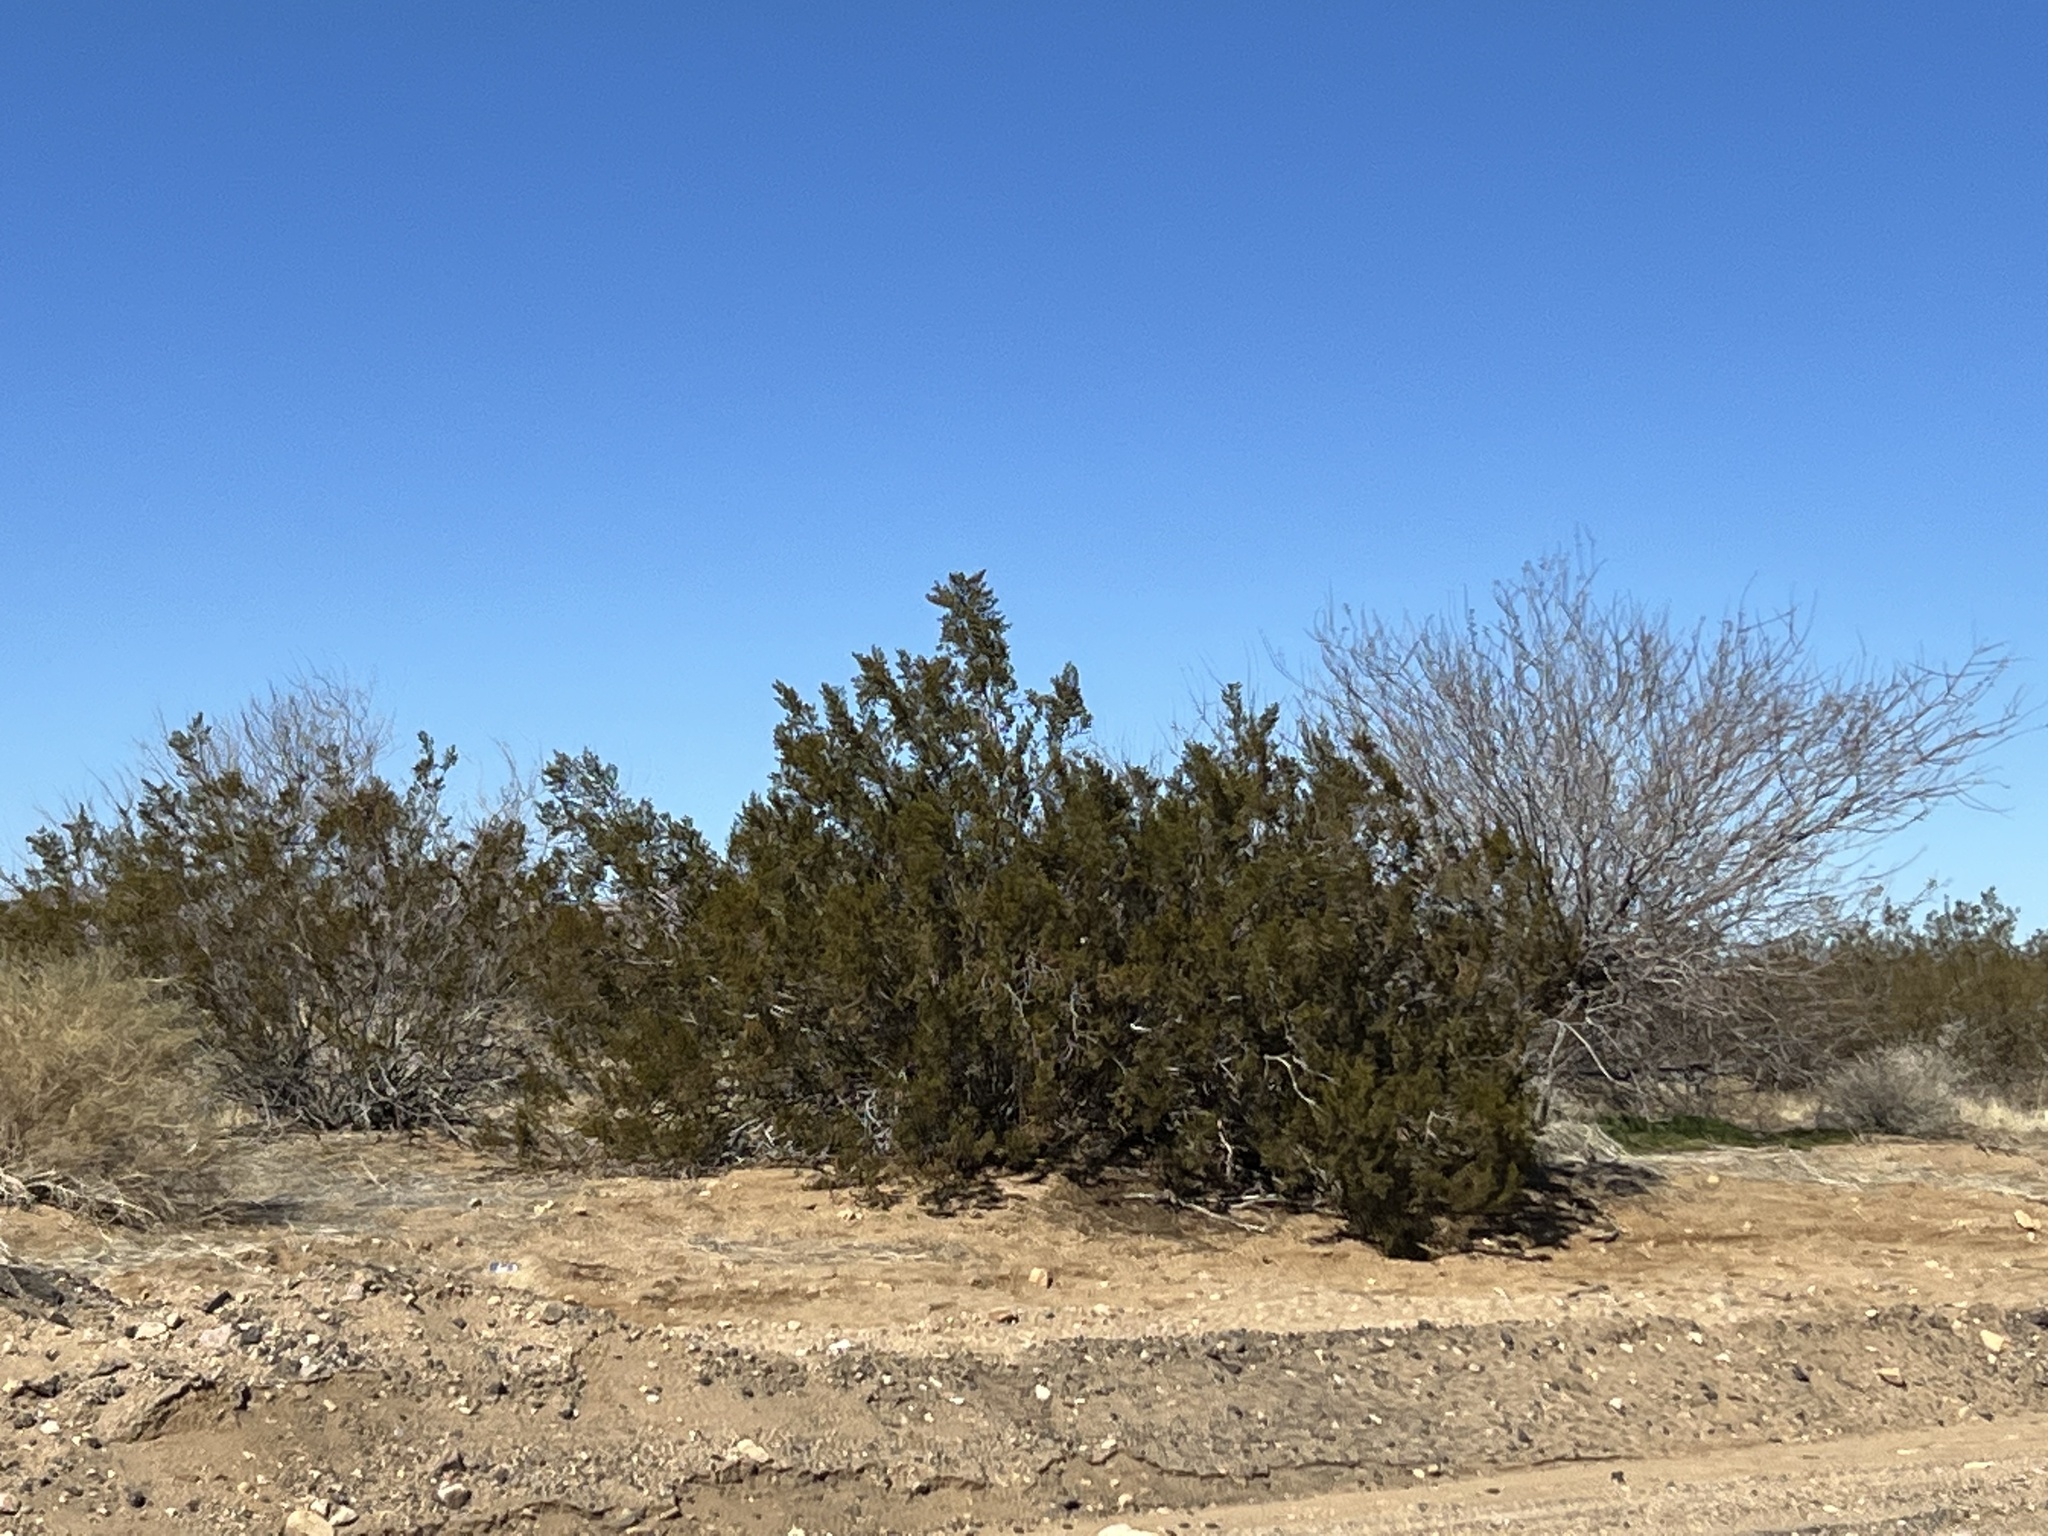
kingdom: Plantae
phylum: Tracheophyta
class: Magnoliopsida
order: Zygophyllales
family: Zygophyllaceae
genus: Larrea
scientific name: Larrea tridentata
